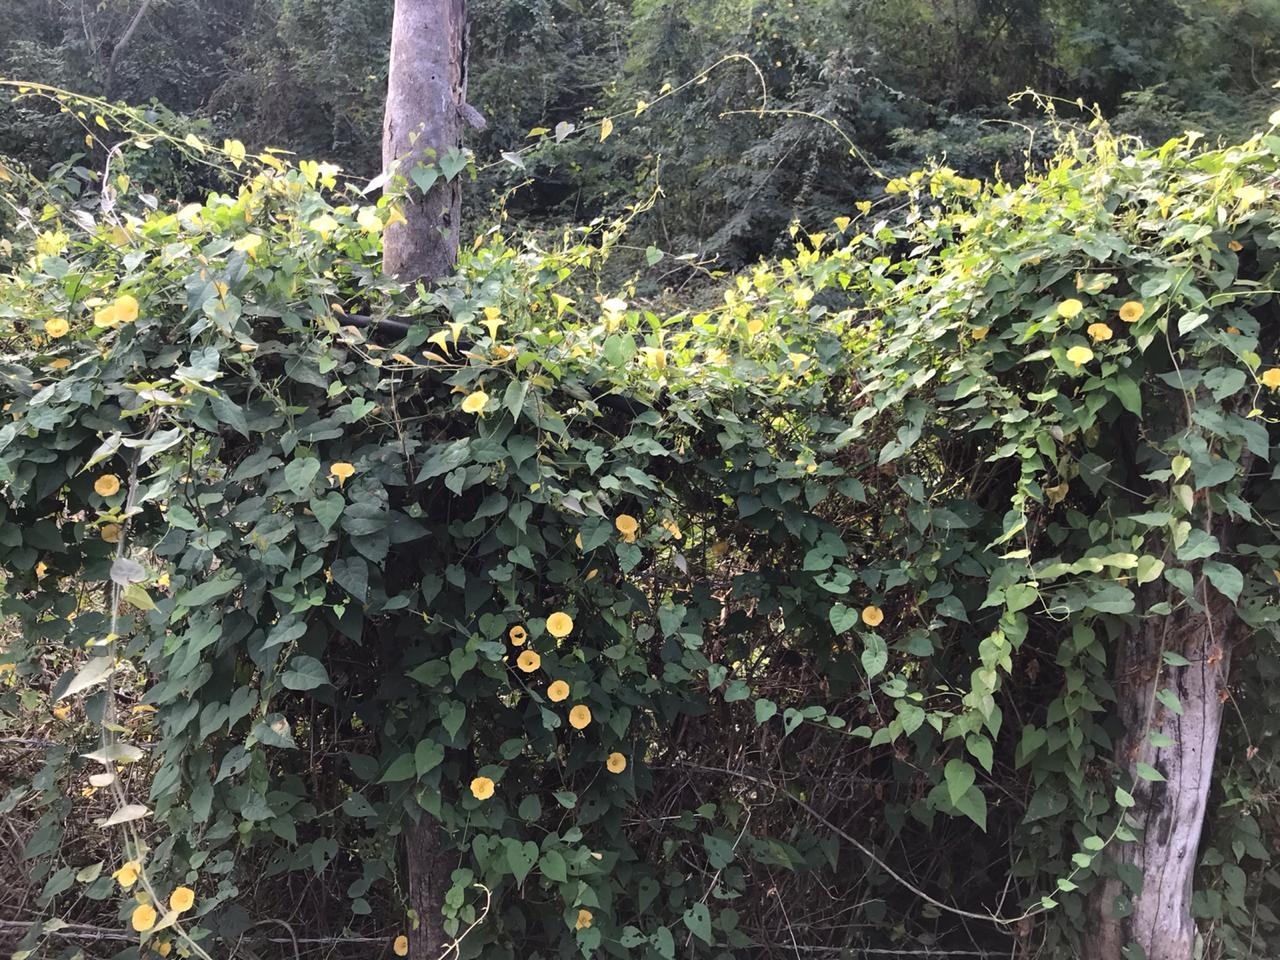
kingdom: Plantae
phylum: Tracheophyta
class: Magnoliopsida
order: Solanales
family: Convolvulaceae
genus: Ipomoea
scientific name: Ipomoea microsepala
